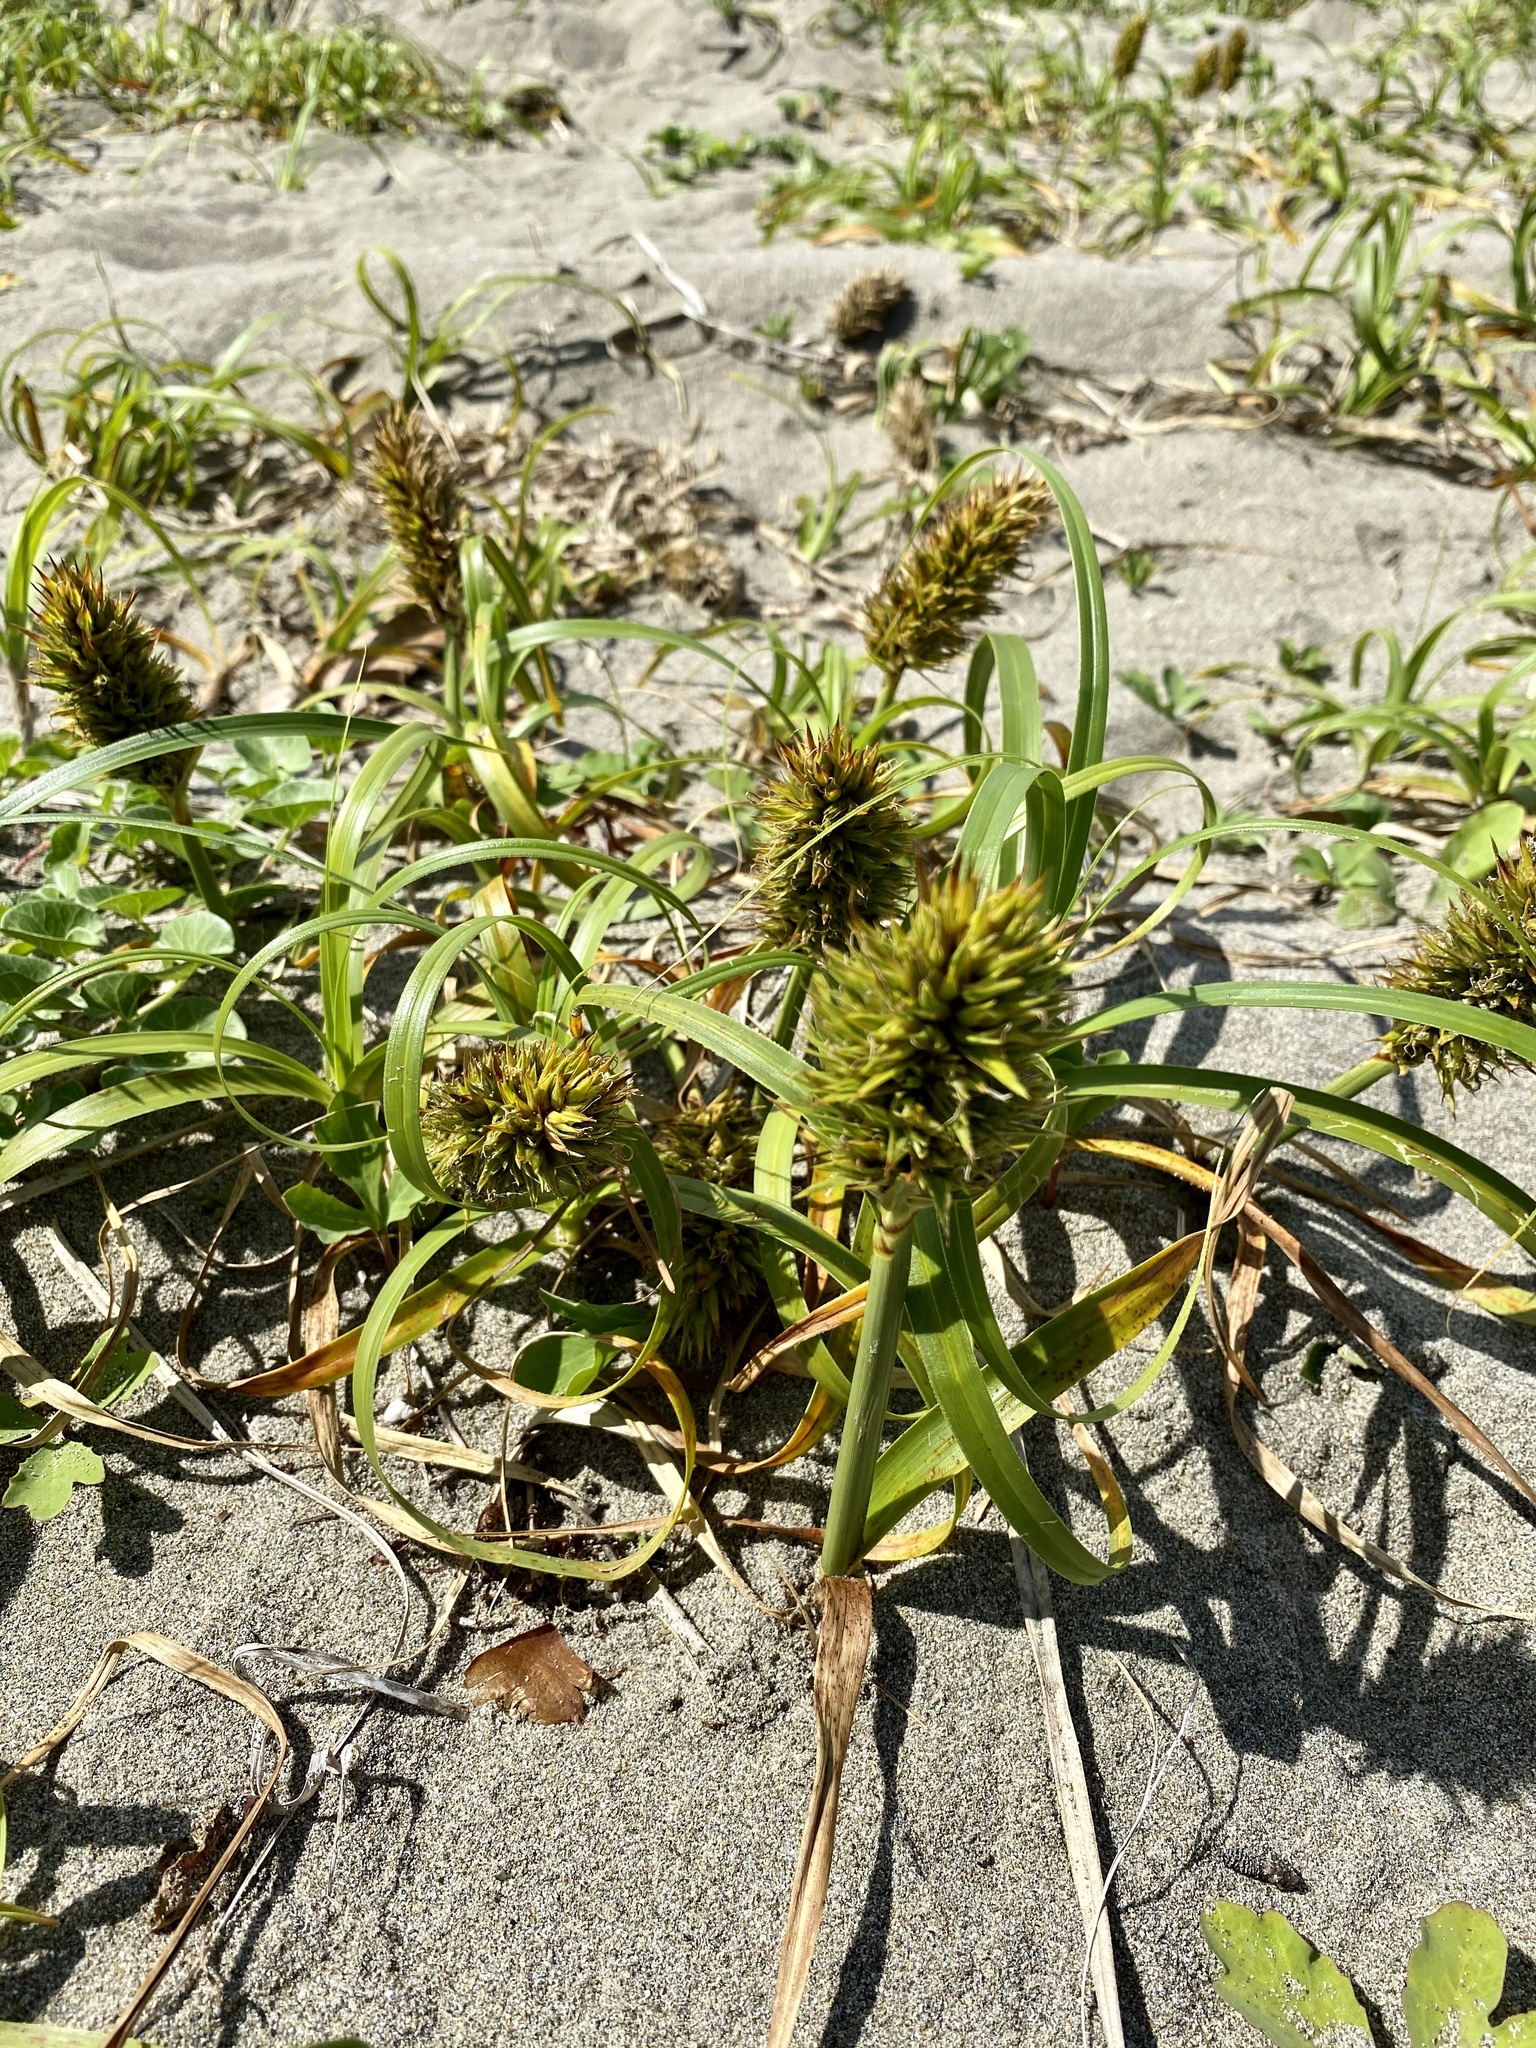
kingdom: Plantae
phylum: Tracheophyta
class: Liliopsida
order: Poales
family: Cyperaceae
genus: Carex
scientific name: Carex kobomugi
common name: Japanese sedge
